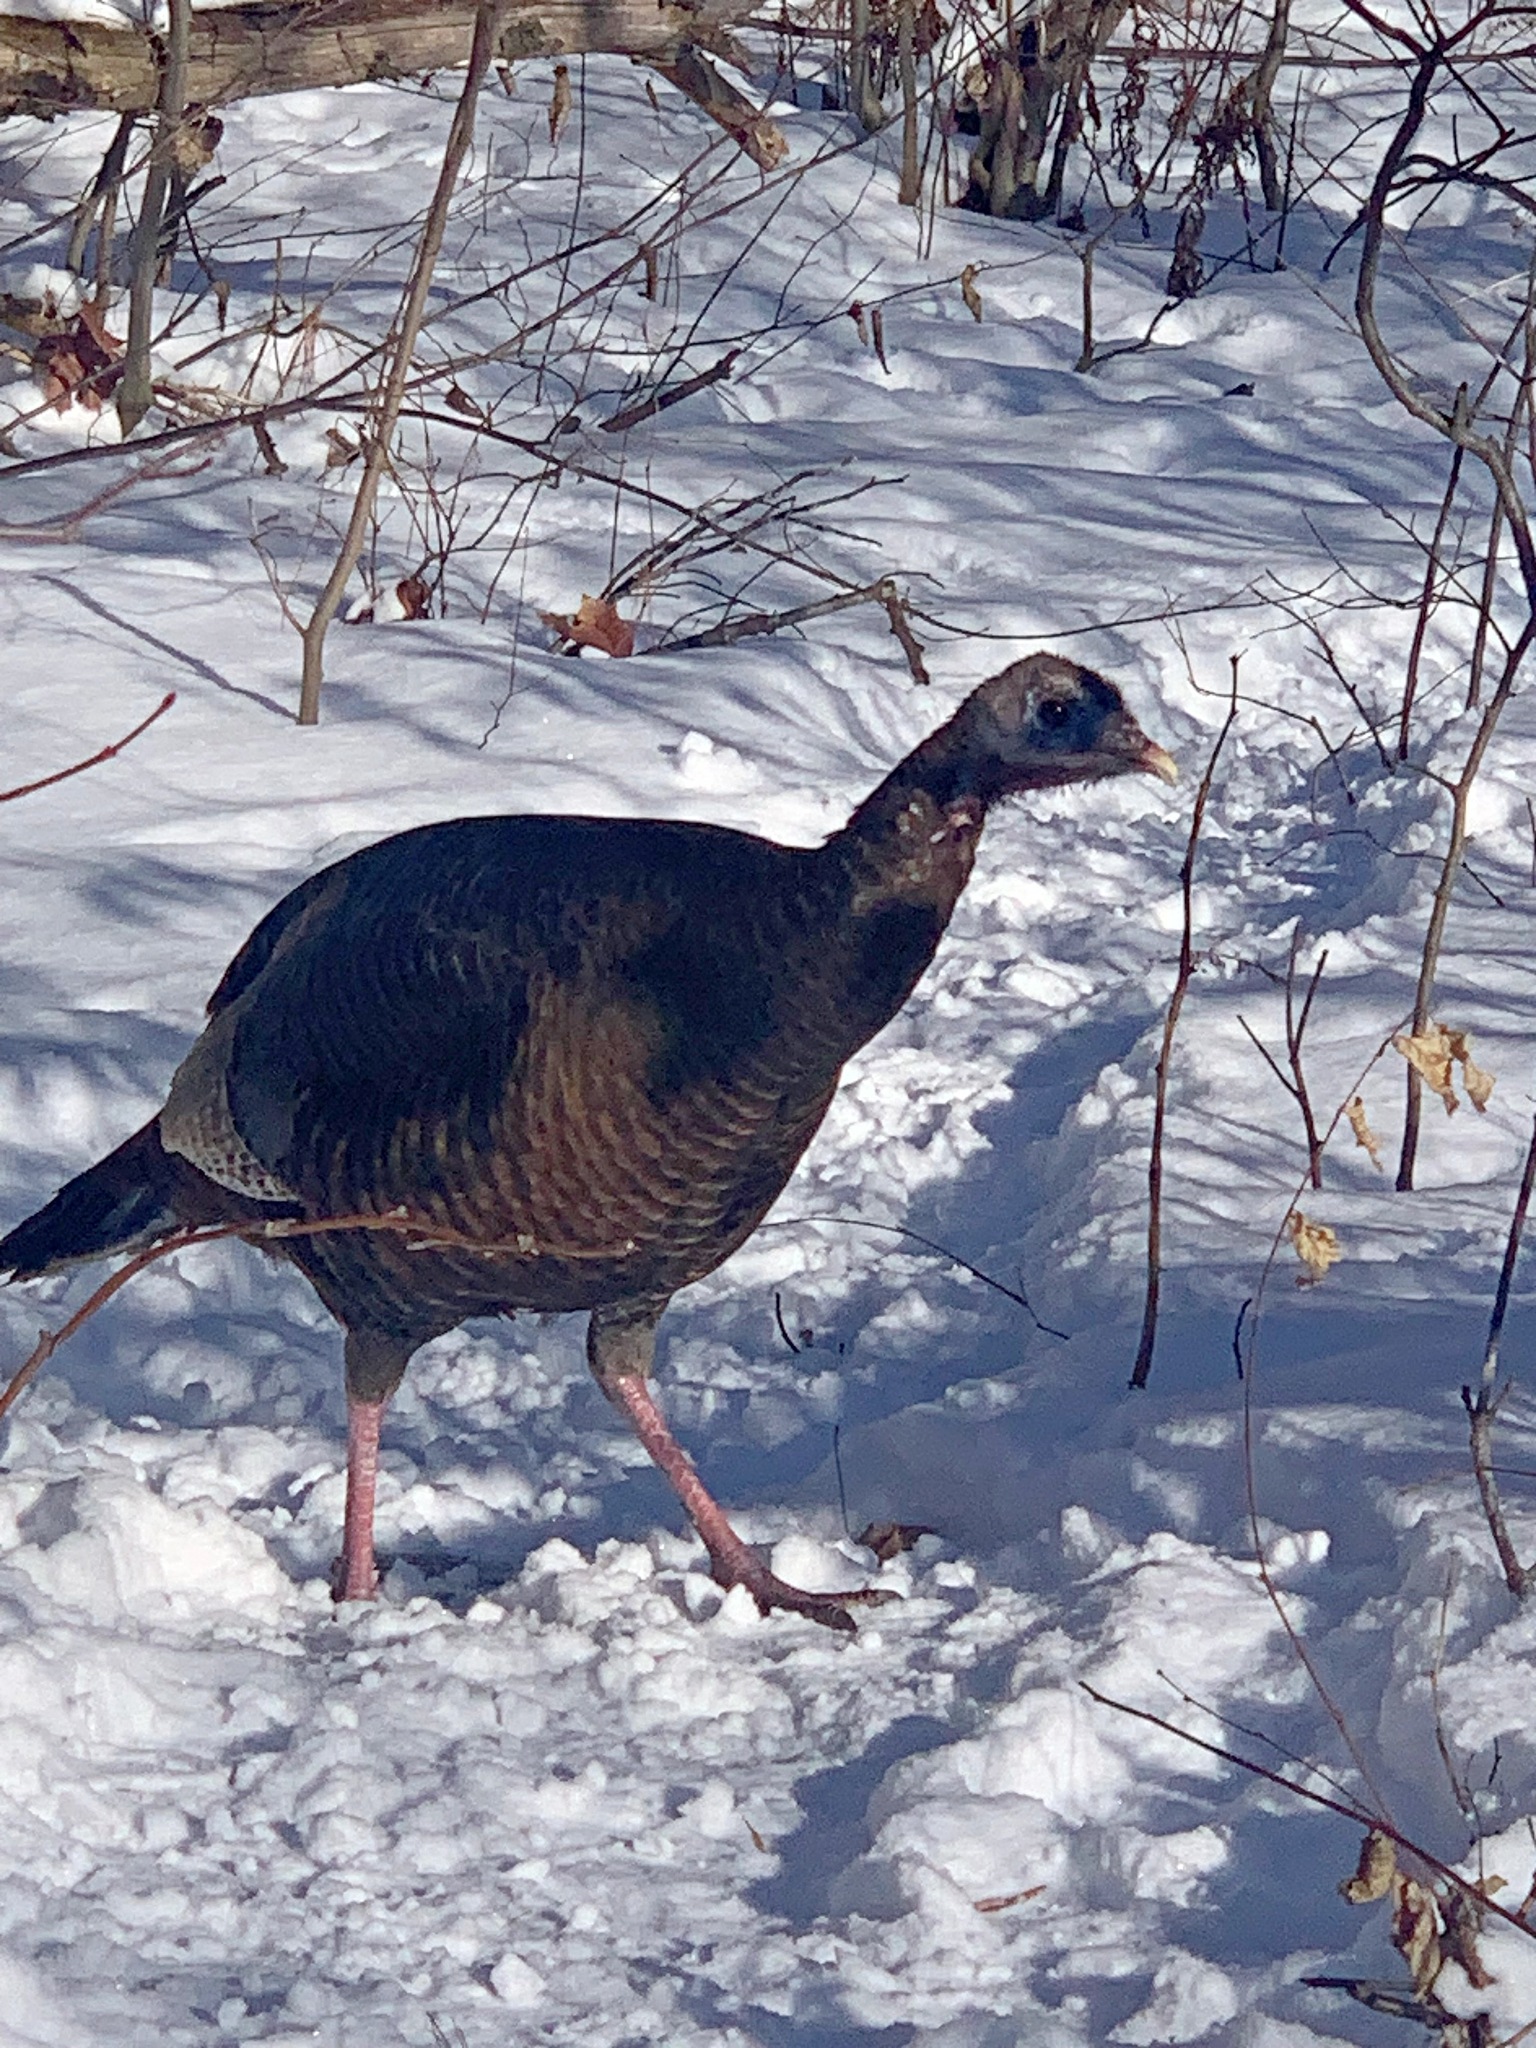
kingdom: Animalia
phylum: Chordata
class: Aves
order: Galliformes
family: Phasianidae
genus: Meleagris
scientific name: Meleagris gallopavo
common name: Wild turkey
